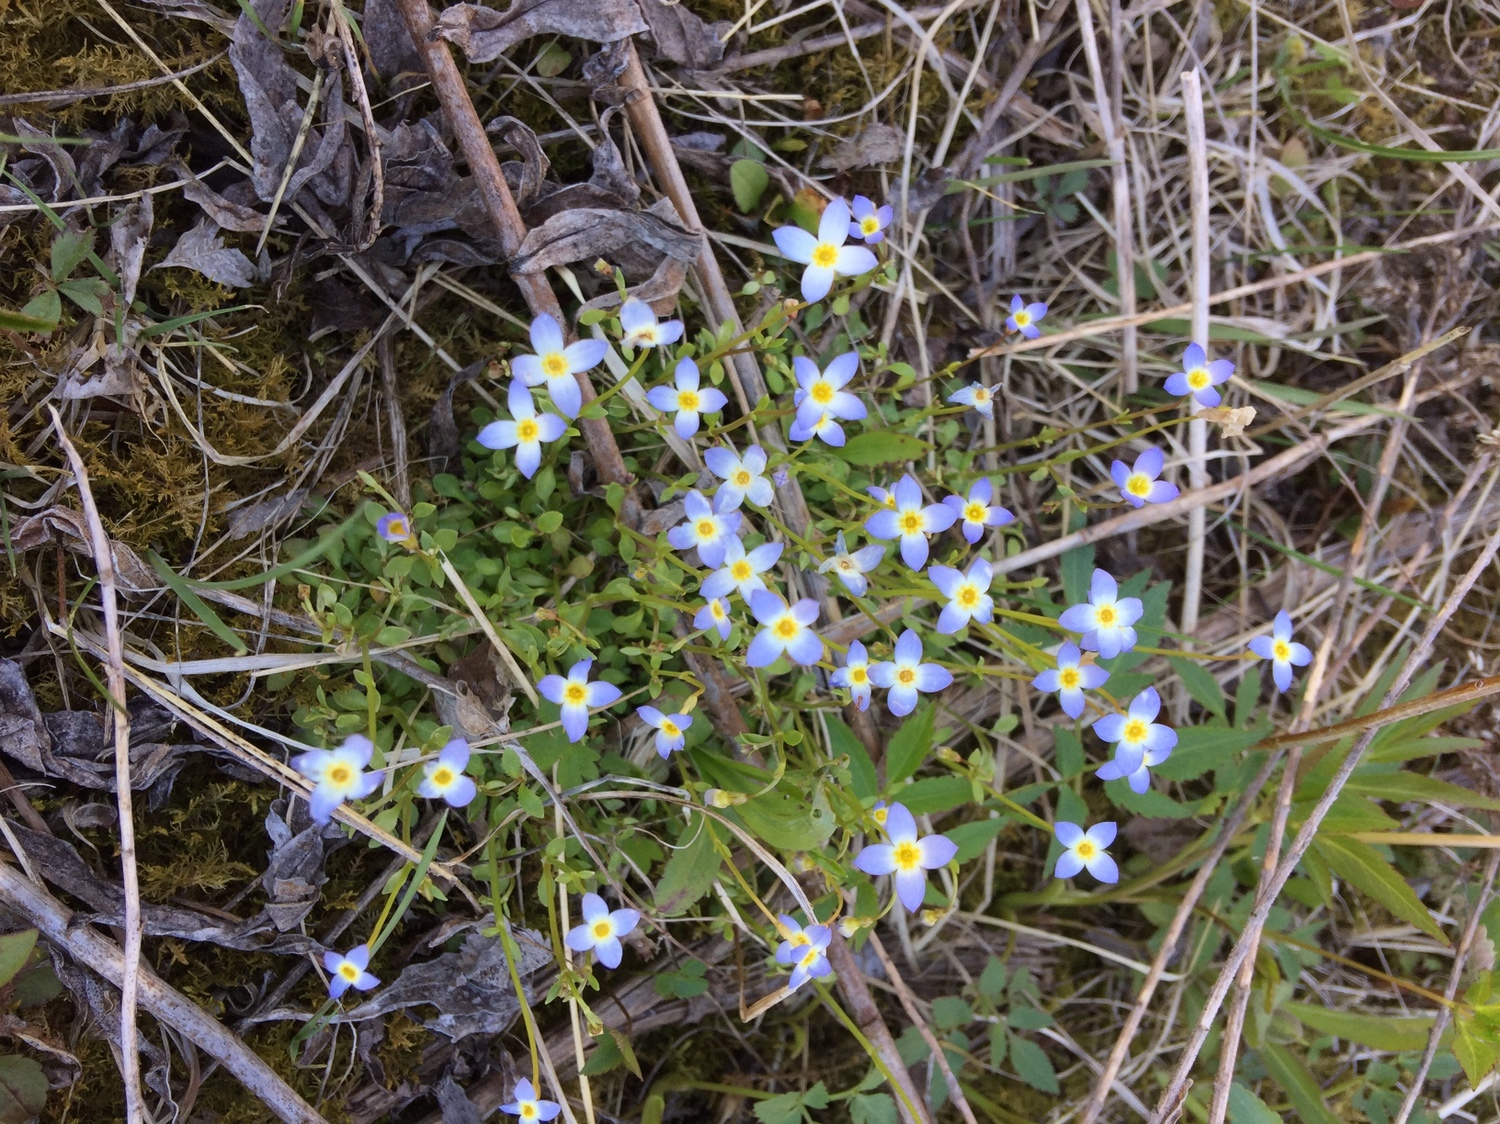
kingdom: Plantae
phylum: Tracheophyta
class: Magnoliopsida
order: Gentianales
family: Rubiaceae
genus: Houstonia
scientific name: Houstonia caerulea
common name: Bluets
